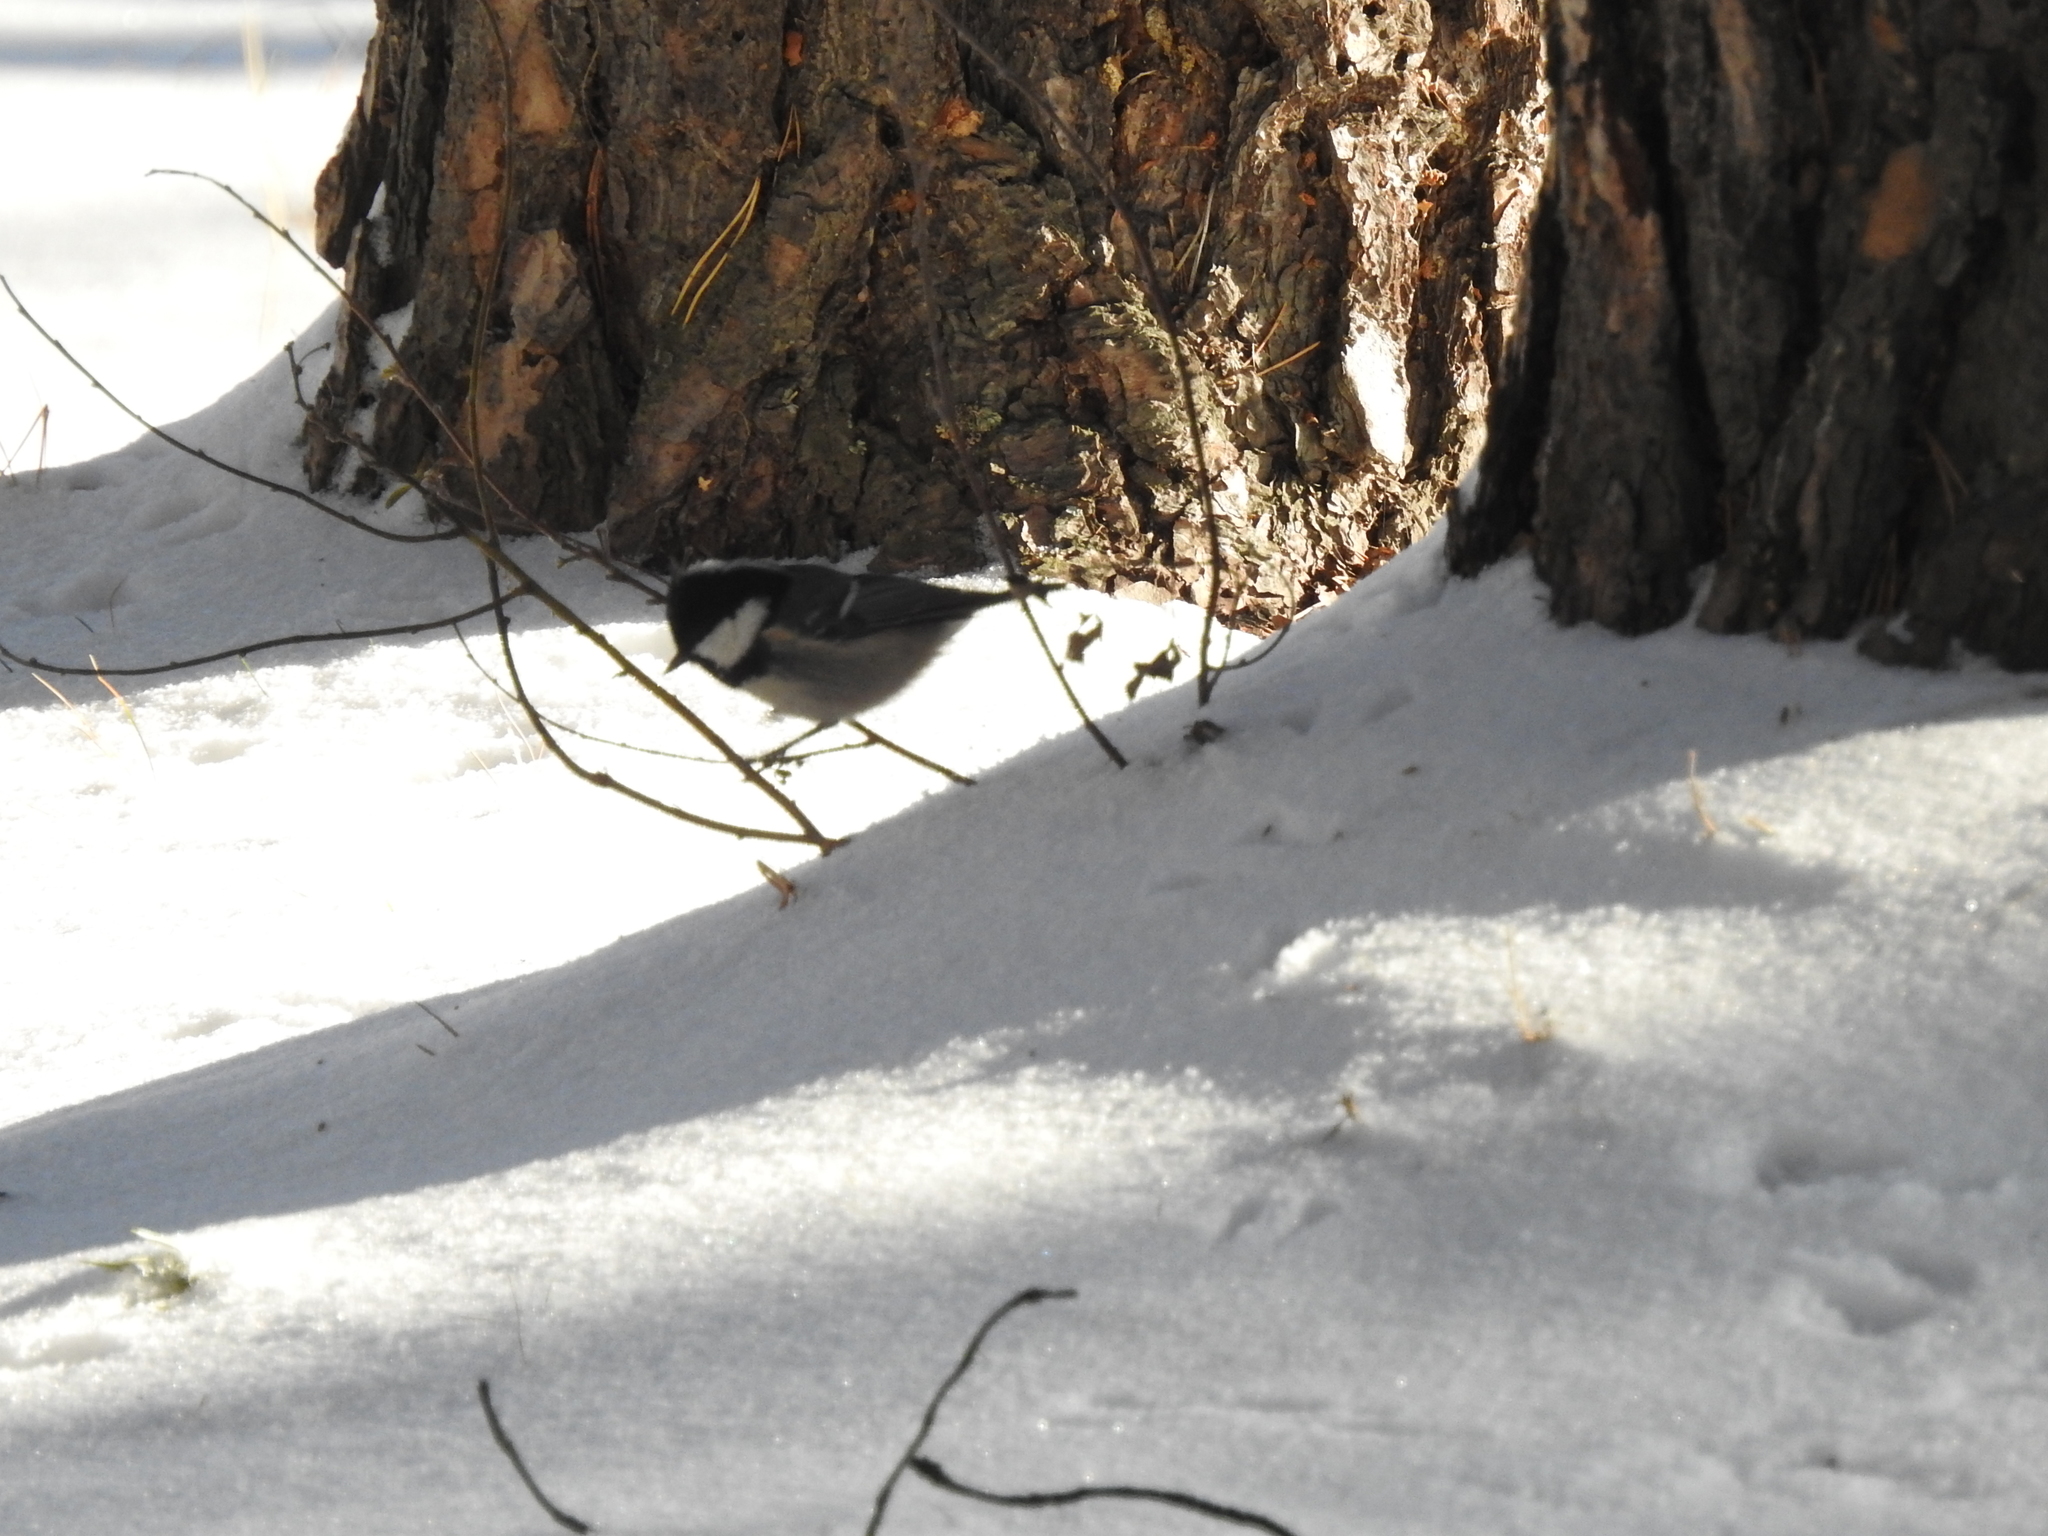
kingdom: Animalia
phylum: Chordata
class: Aves
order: Passeriformes
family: Paridae
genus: Periparus
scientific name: Periparus ater
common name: Coal tit
